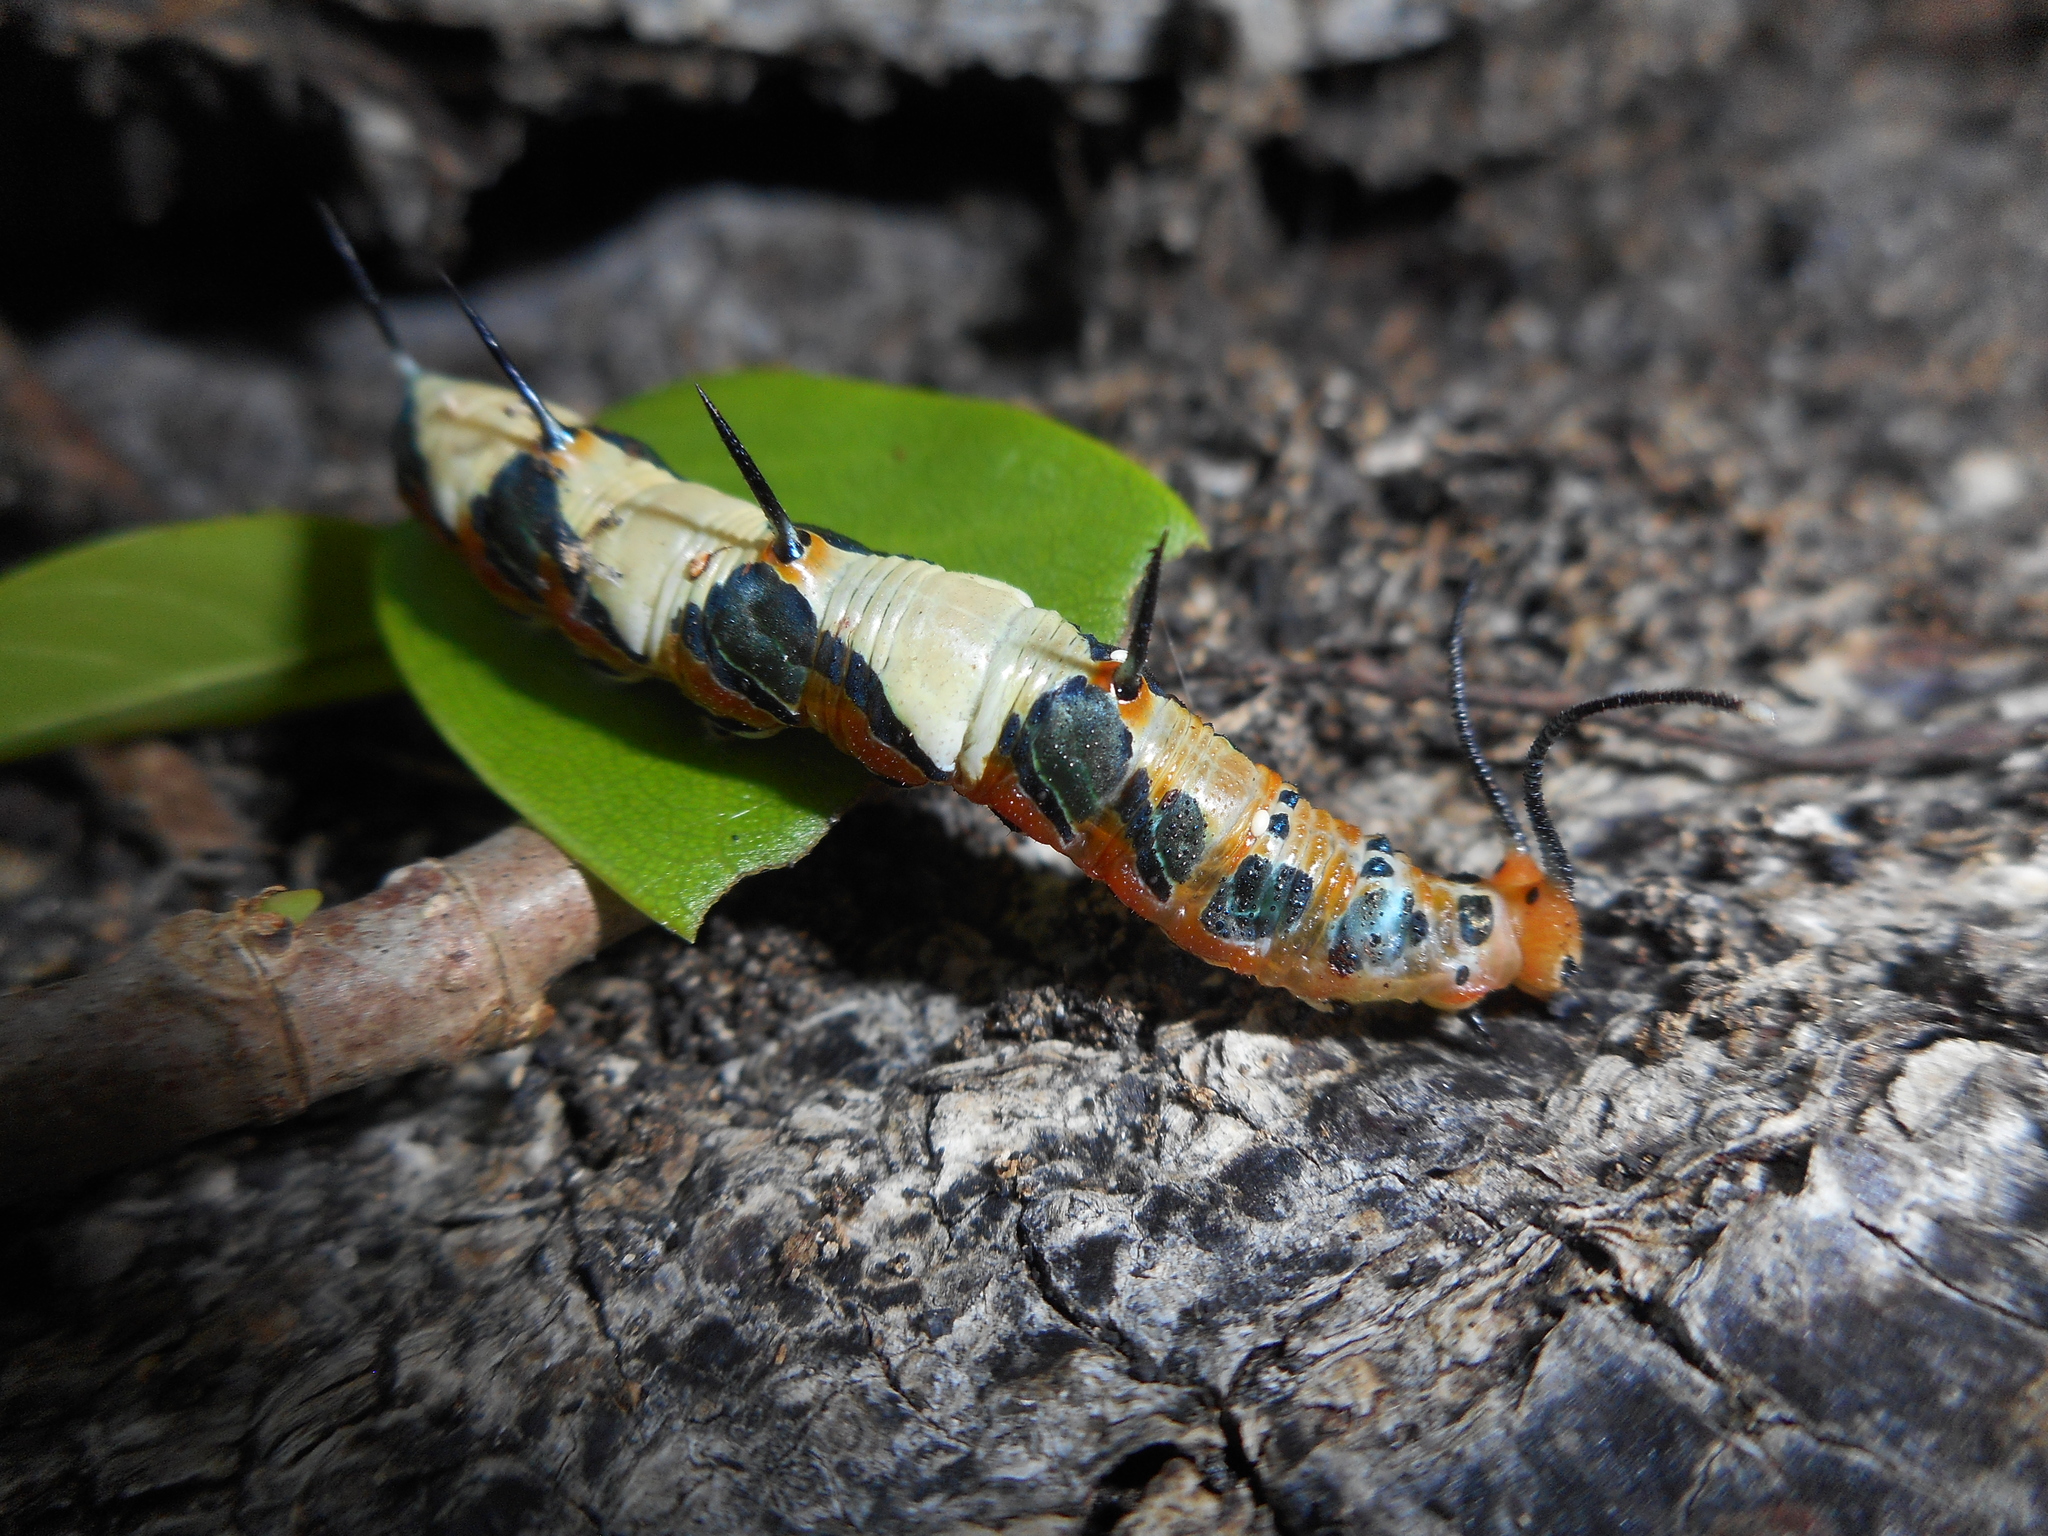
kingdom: Animalia
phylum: Arthropoda
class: Insecta
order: Lepidoptera
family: Nymphalidae
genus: Marpesia
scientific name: Marpesia petreus
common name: Red dagger wing
